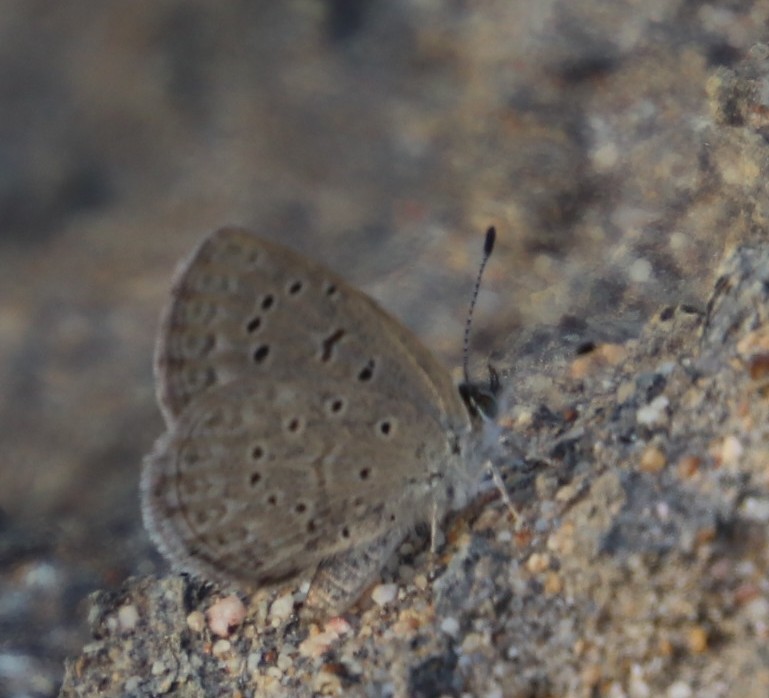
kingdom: Animalia
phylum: Arthropoda
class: Insecta
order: Lepidoptera
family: Lycaenidae
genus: Zizeeria
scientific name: Zizeeria knysna
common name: African grass blue
